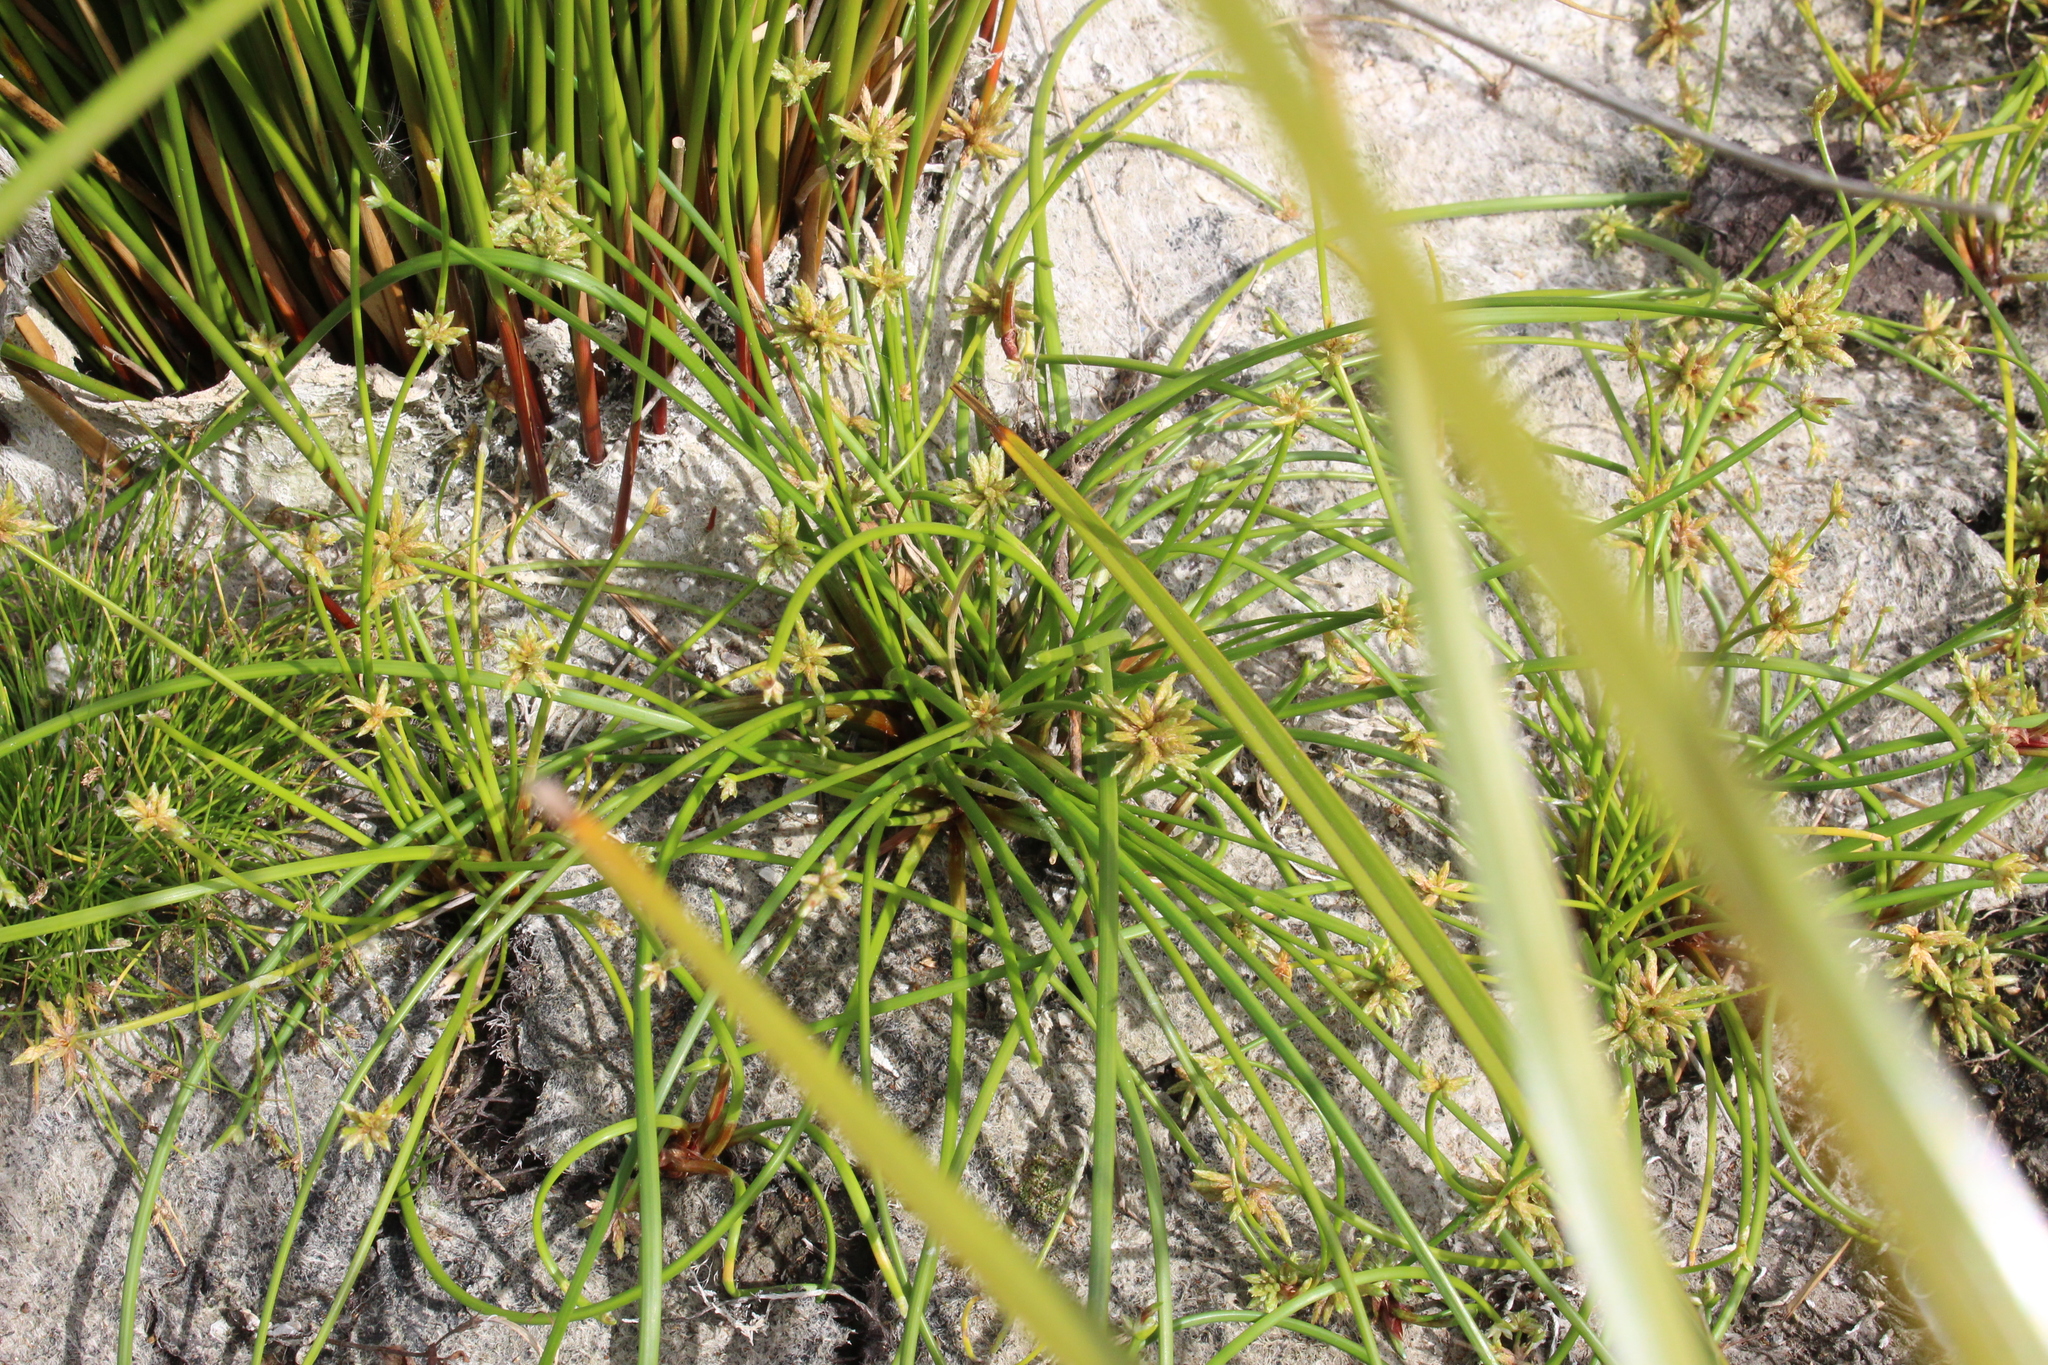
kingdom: Plantae
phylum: Tracheophyta
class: Liliopsida
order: Poales
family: Cyperaceae
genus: Isolepis
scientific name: Isolepis prolifera
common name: Proliferating bulrush
